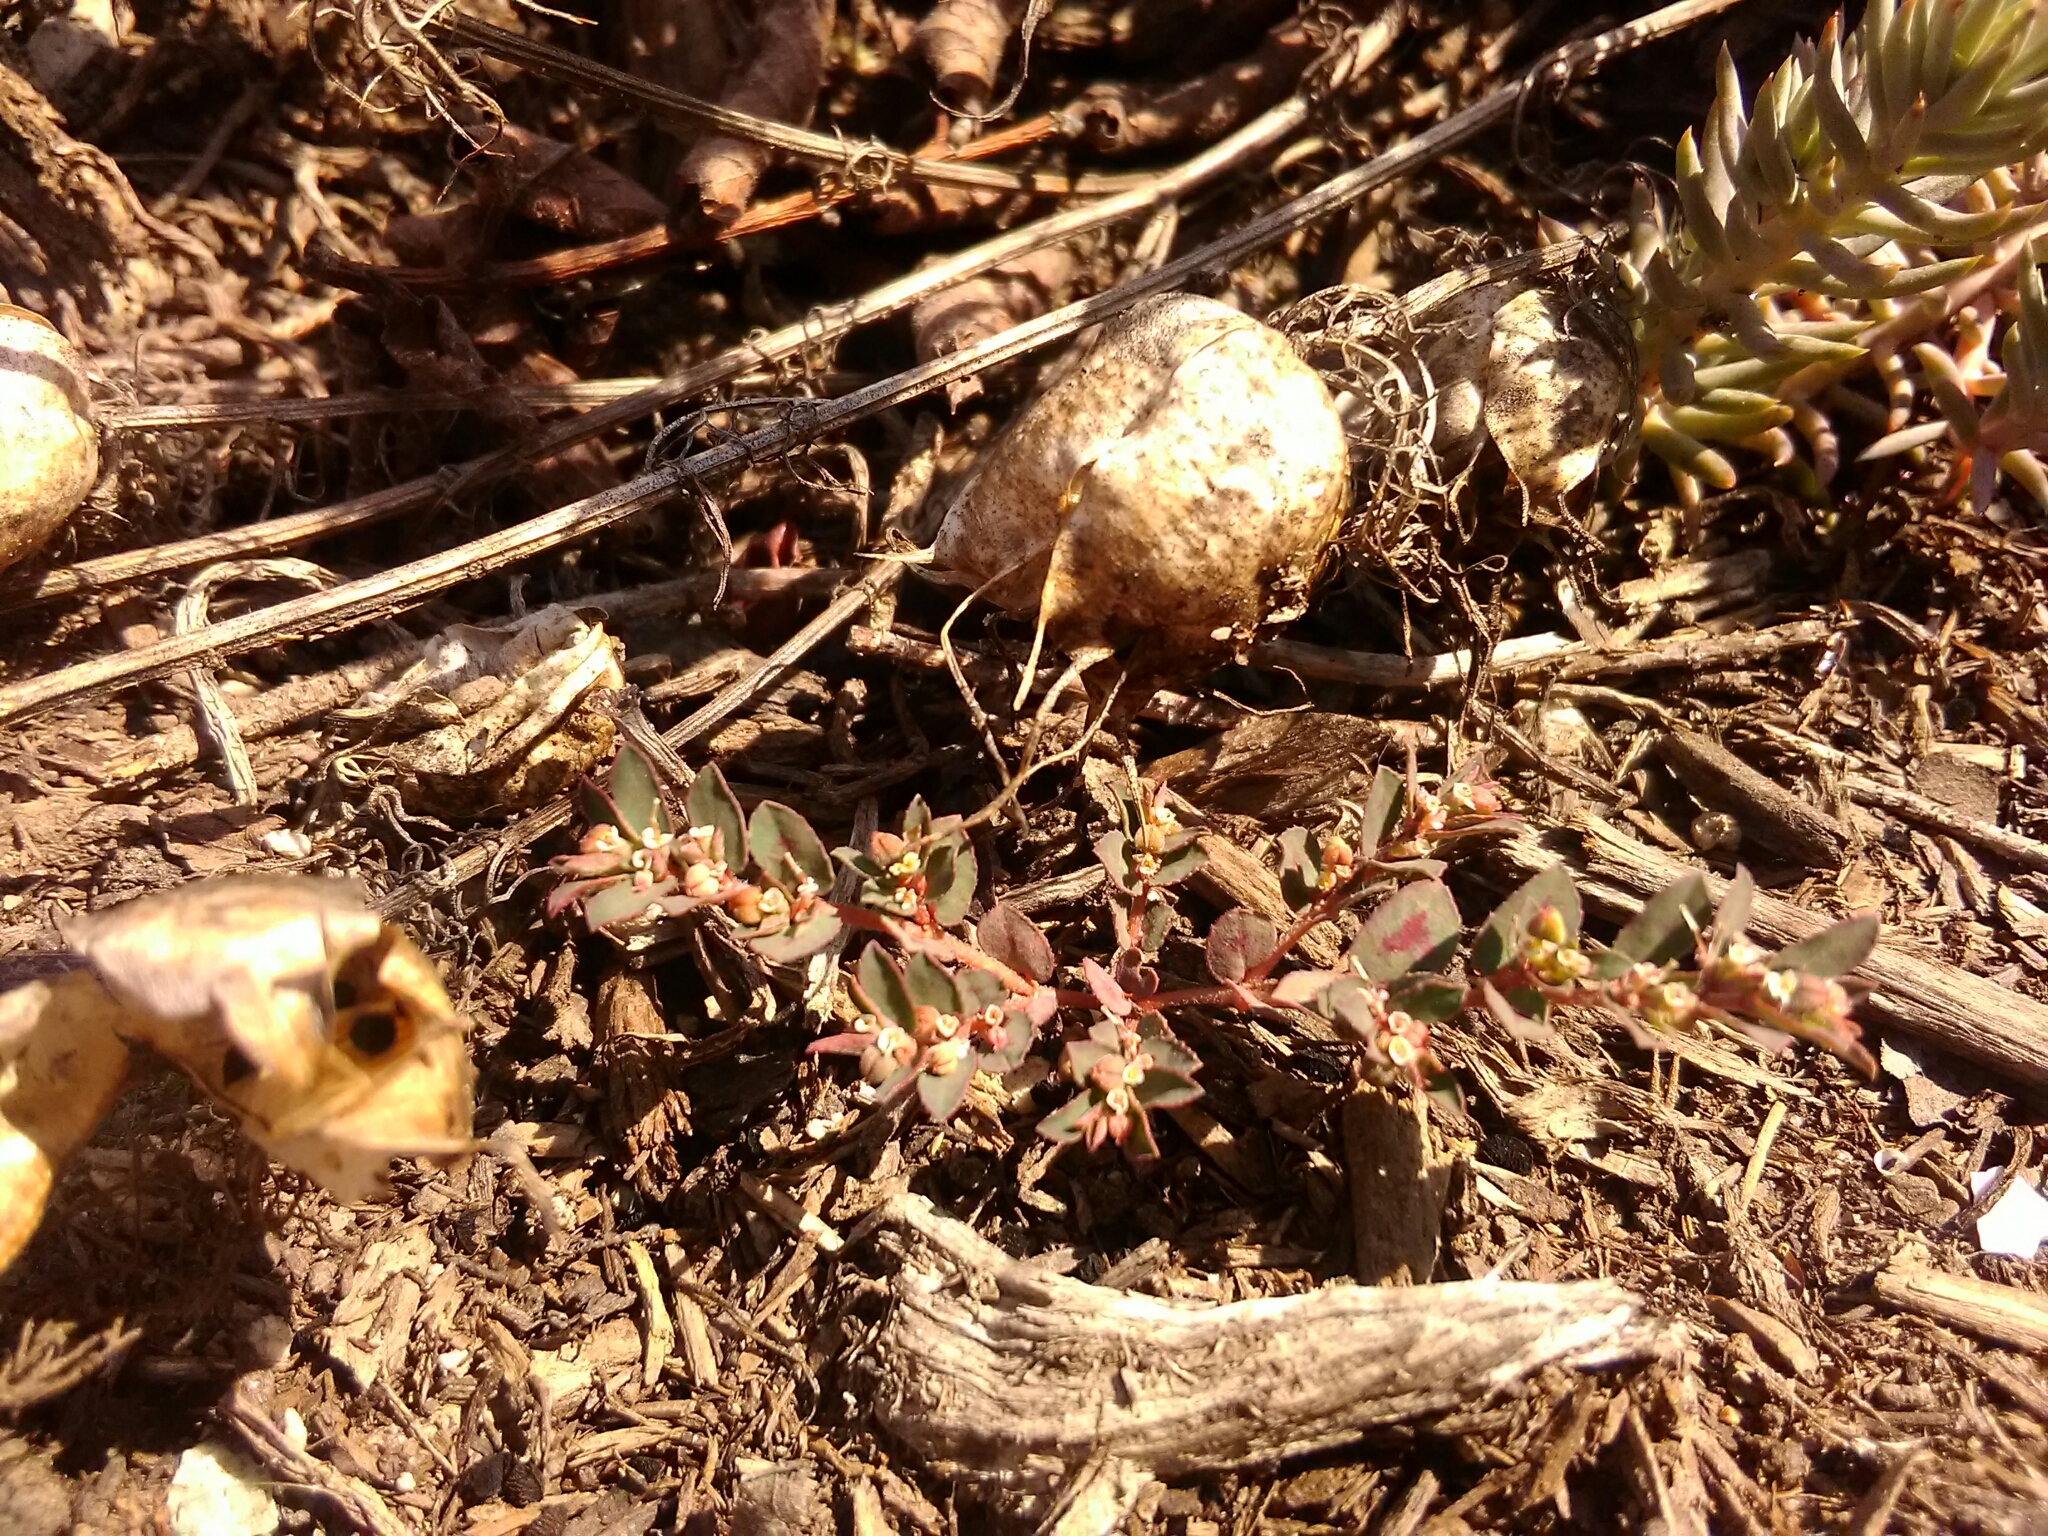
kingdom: Plantae
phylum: Tracheophyta
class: Magnoliopsida
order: Malpighiales
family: Euphorbiaceae
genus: Euphorbia
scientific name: Euphorbia maculata
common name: Spotted spurge
